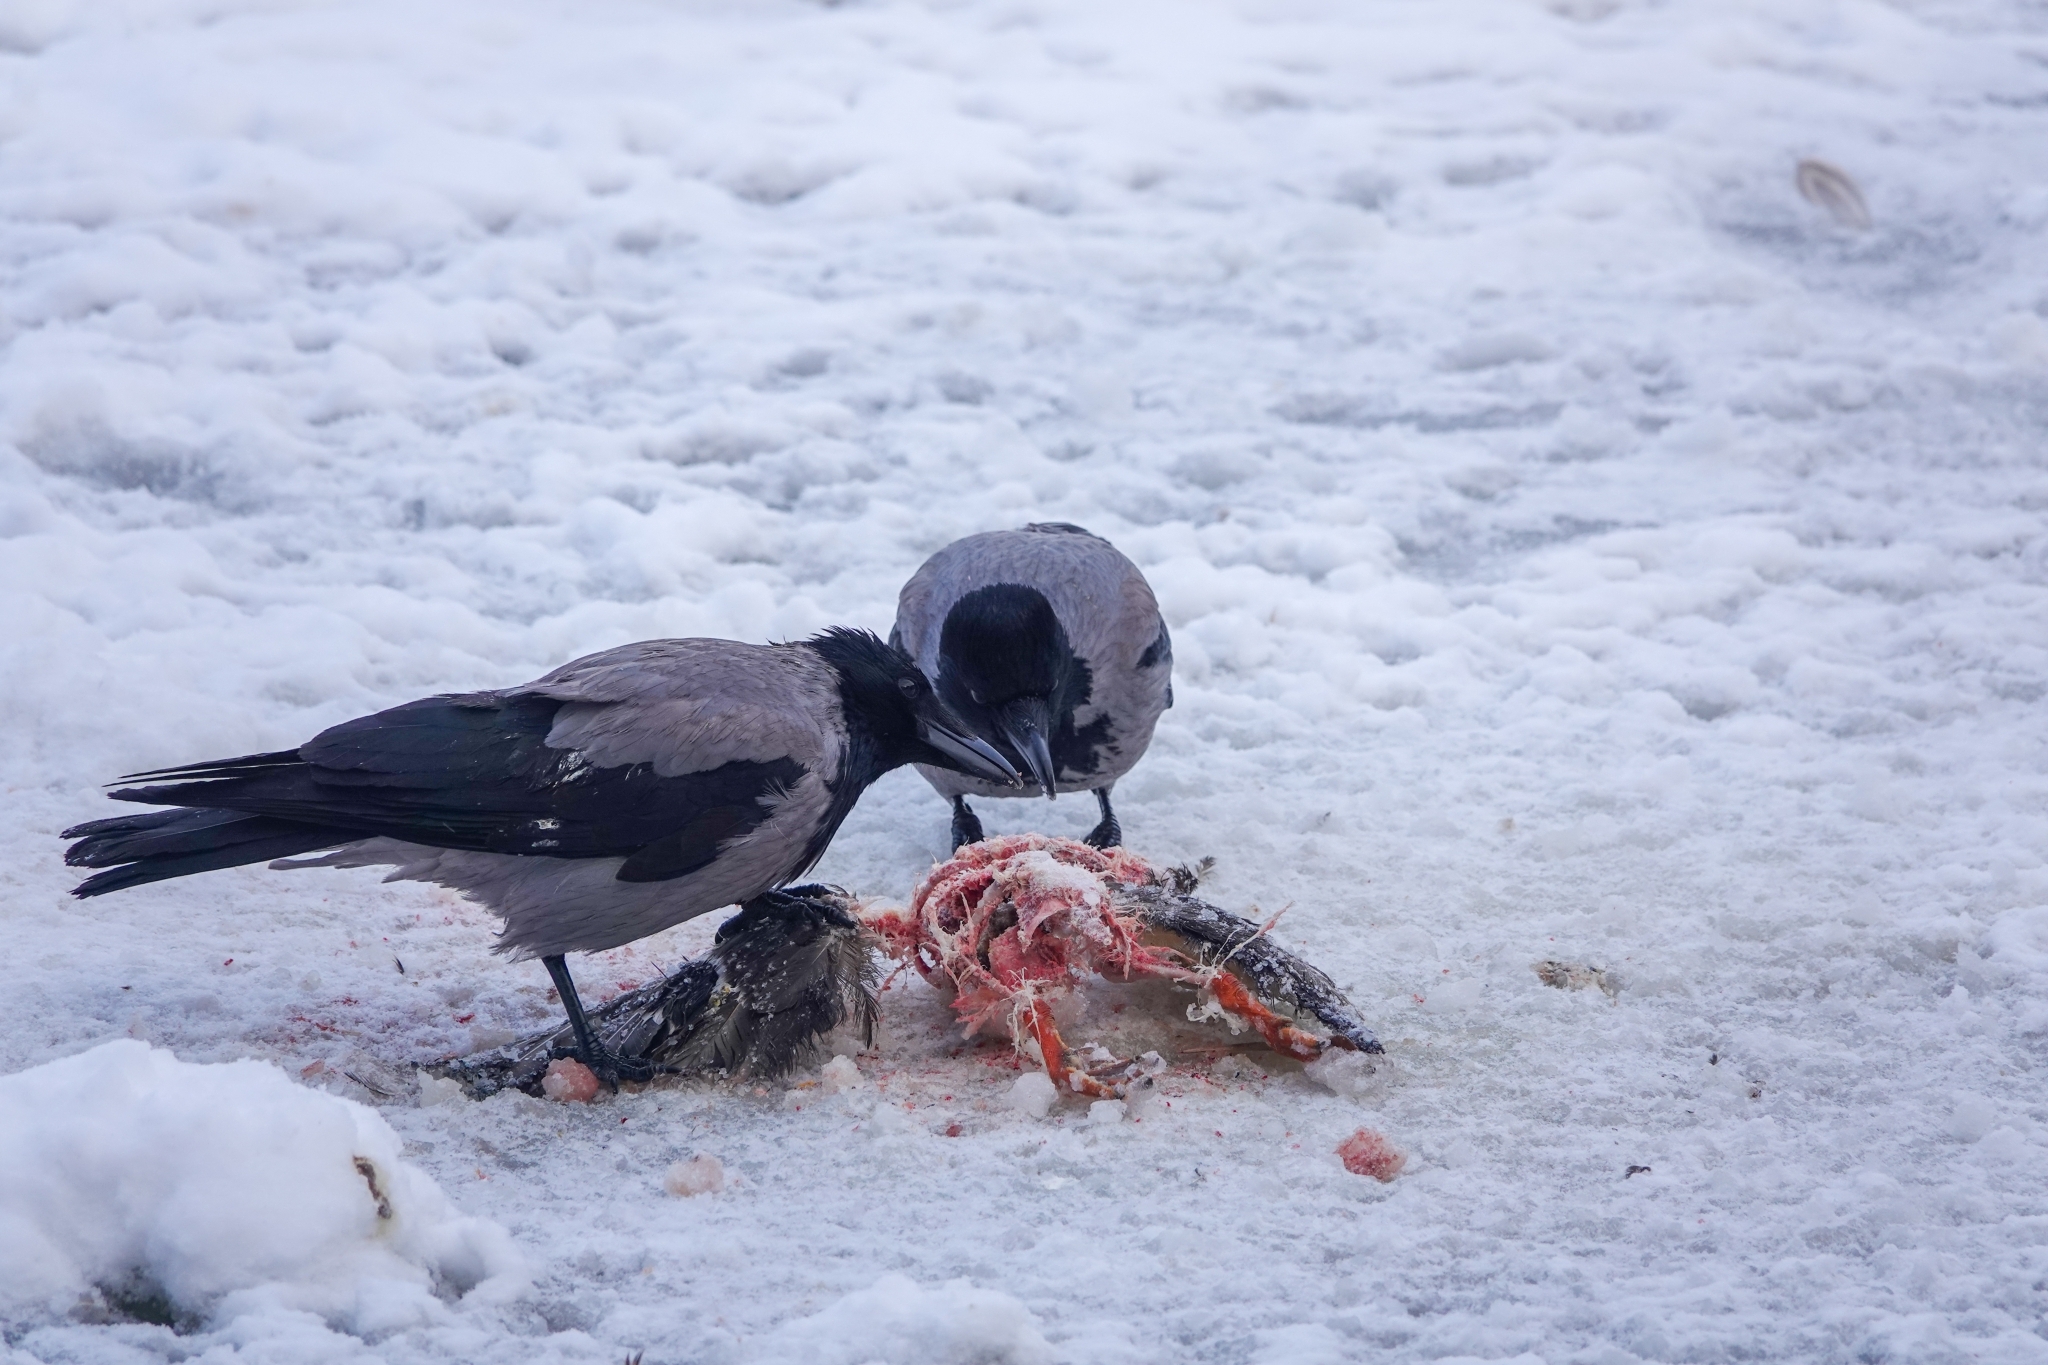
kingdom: Animalia
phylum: Chordata
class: Aves
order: Passeriformes
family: Corvidae
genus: Corvus
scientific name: Corvus cornix
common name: Hooded crow
